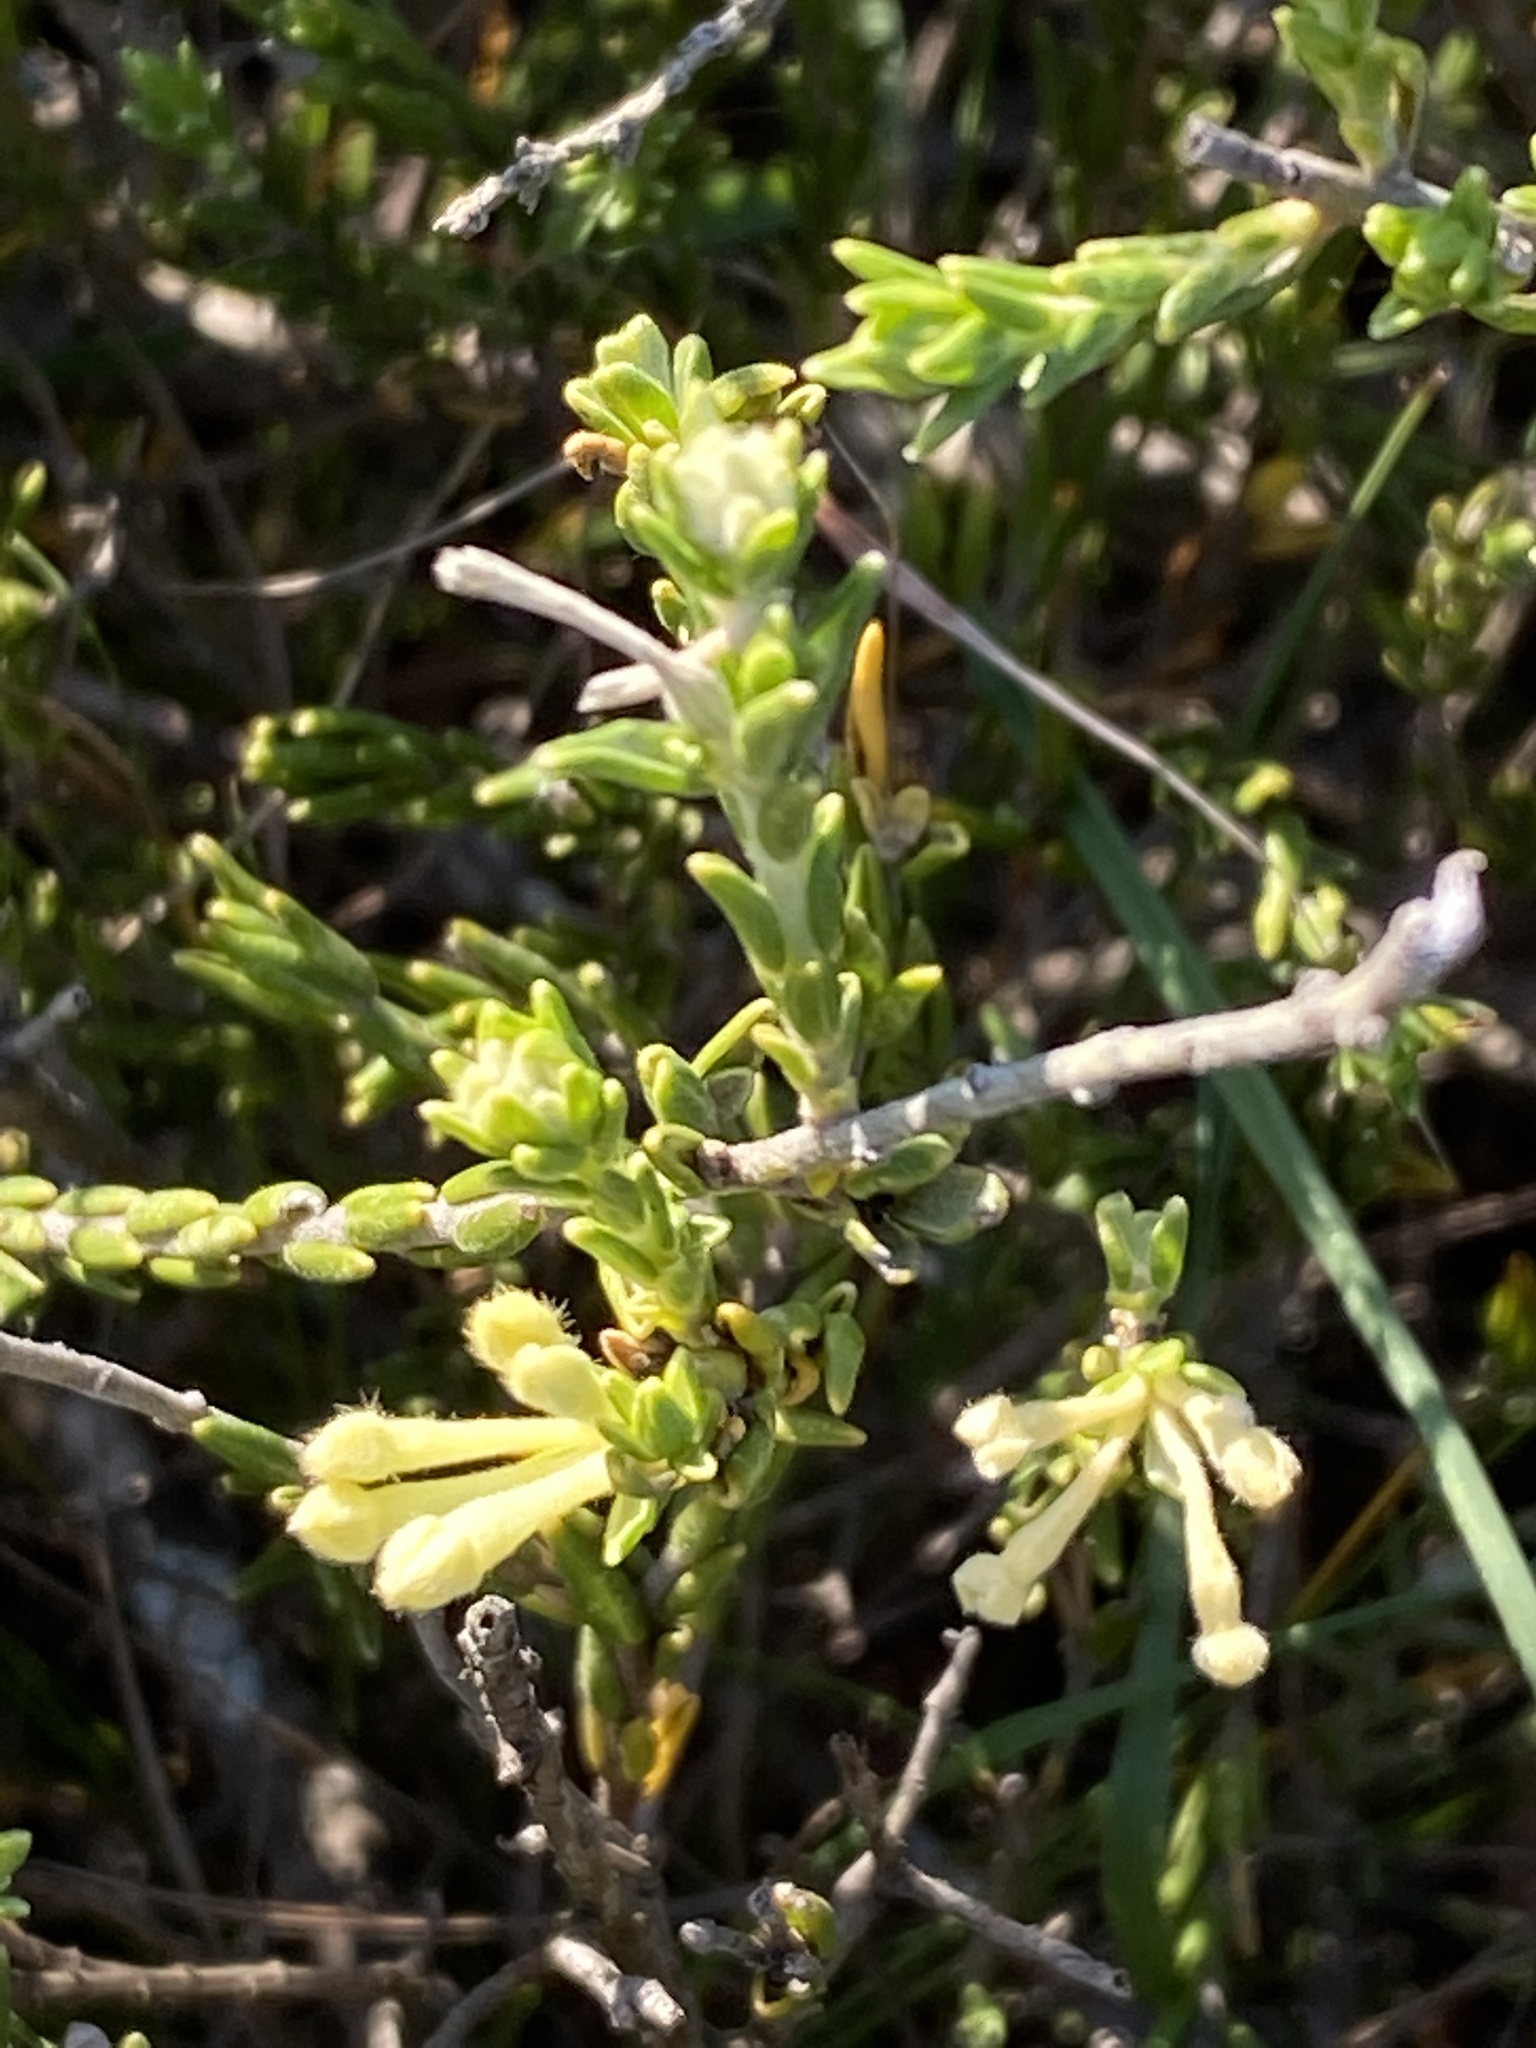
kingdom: Plantae
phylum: Tracheophyta
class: Magnoliopsida
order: Malvales
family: Thymelaeaceae
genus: Gnidia
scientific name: Gnidia nodiflora
